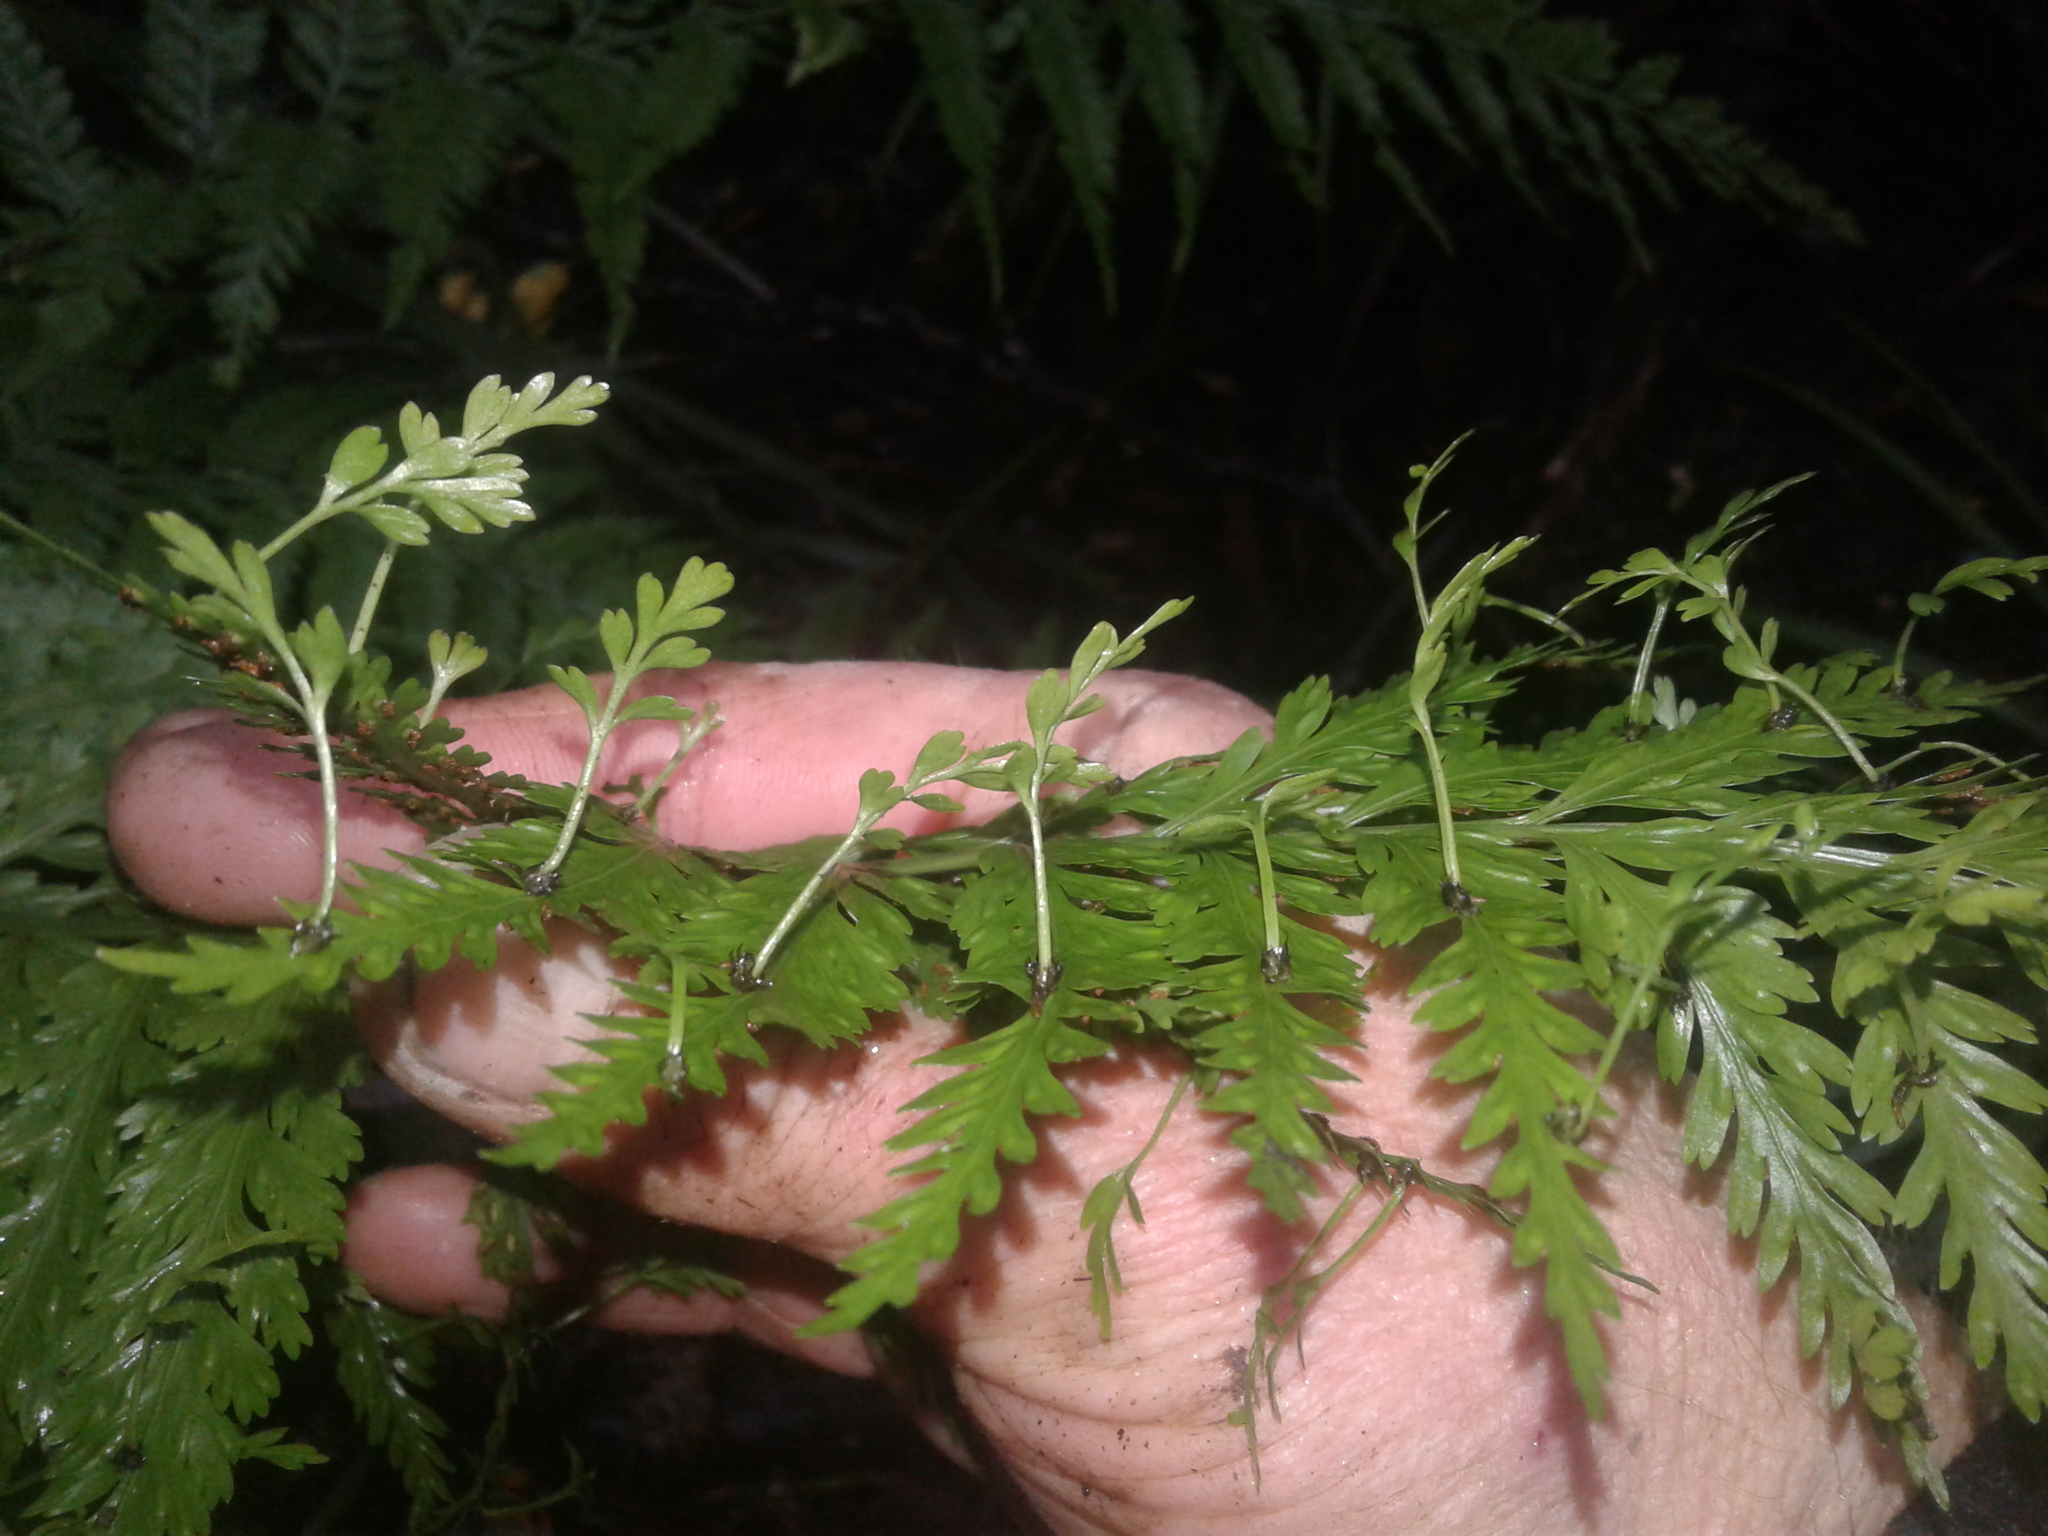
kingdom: Plantae
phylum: Tracheophyta
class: Polypodiopsida
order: Polypodiales
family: Aspleniaceae
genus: Asplenium
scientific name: Asplenium bulbiferum
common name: Mother fern
